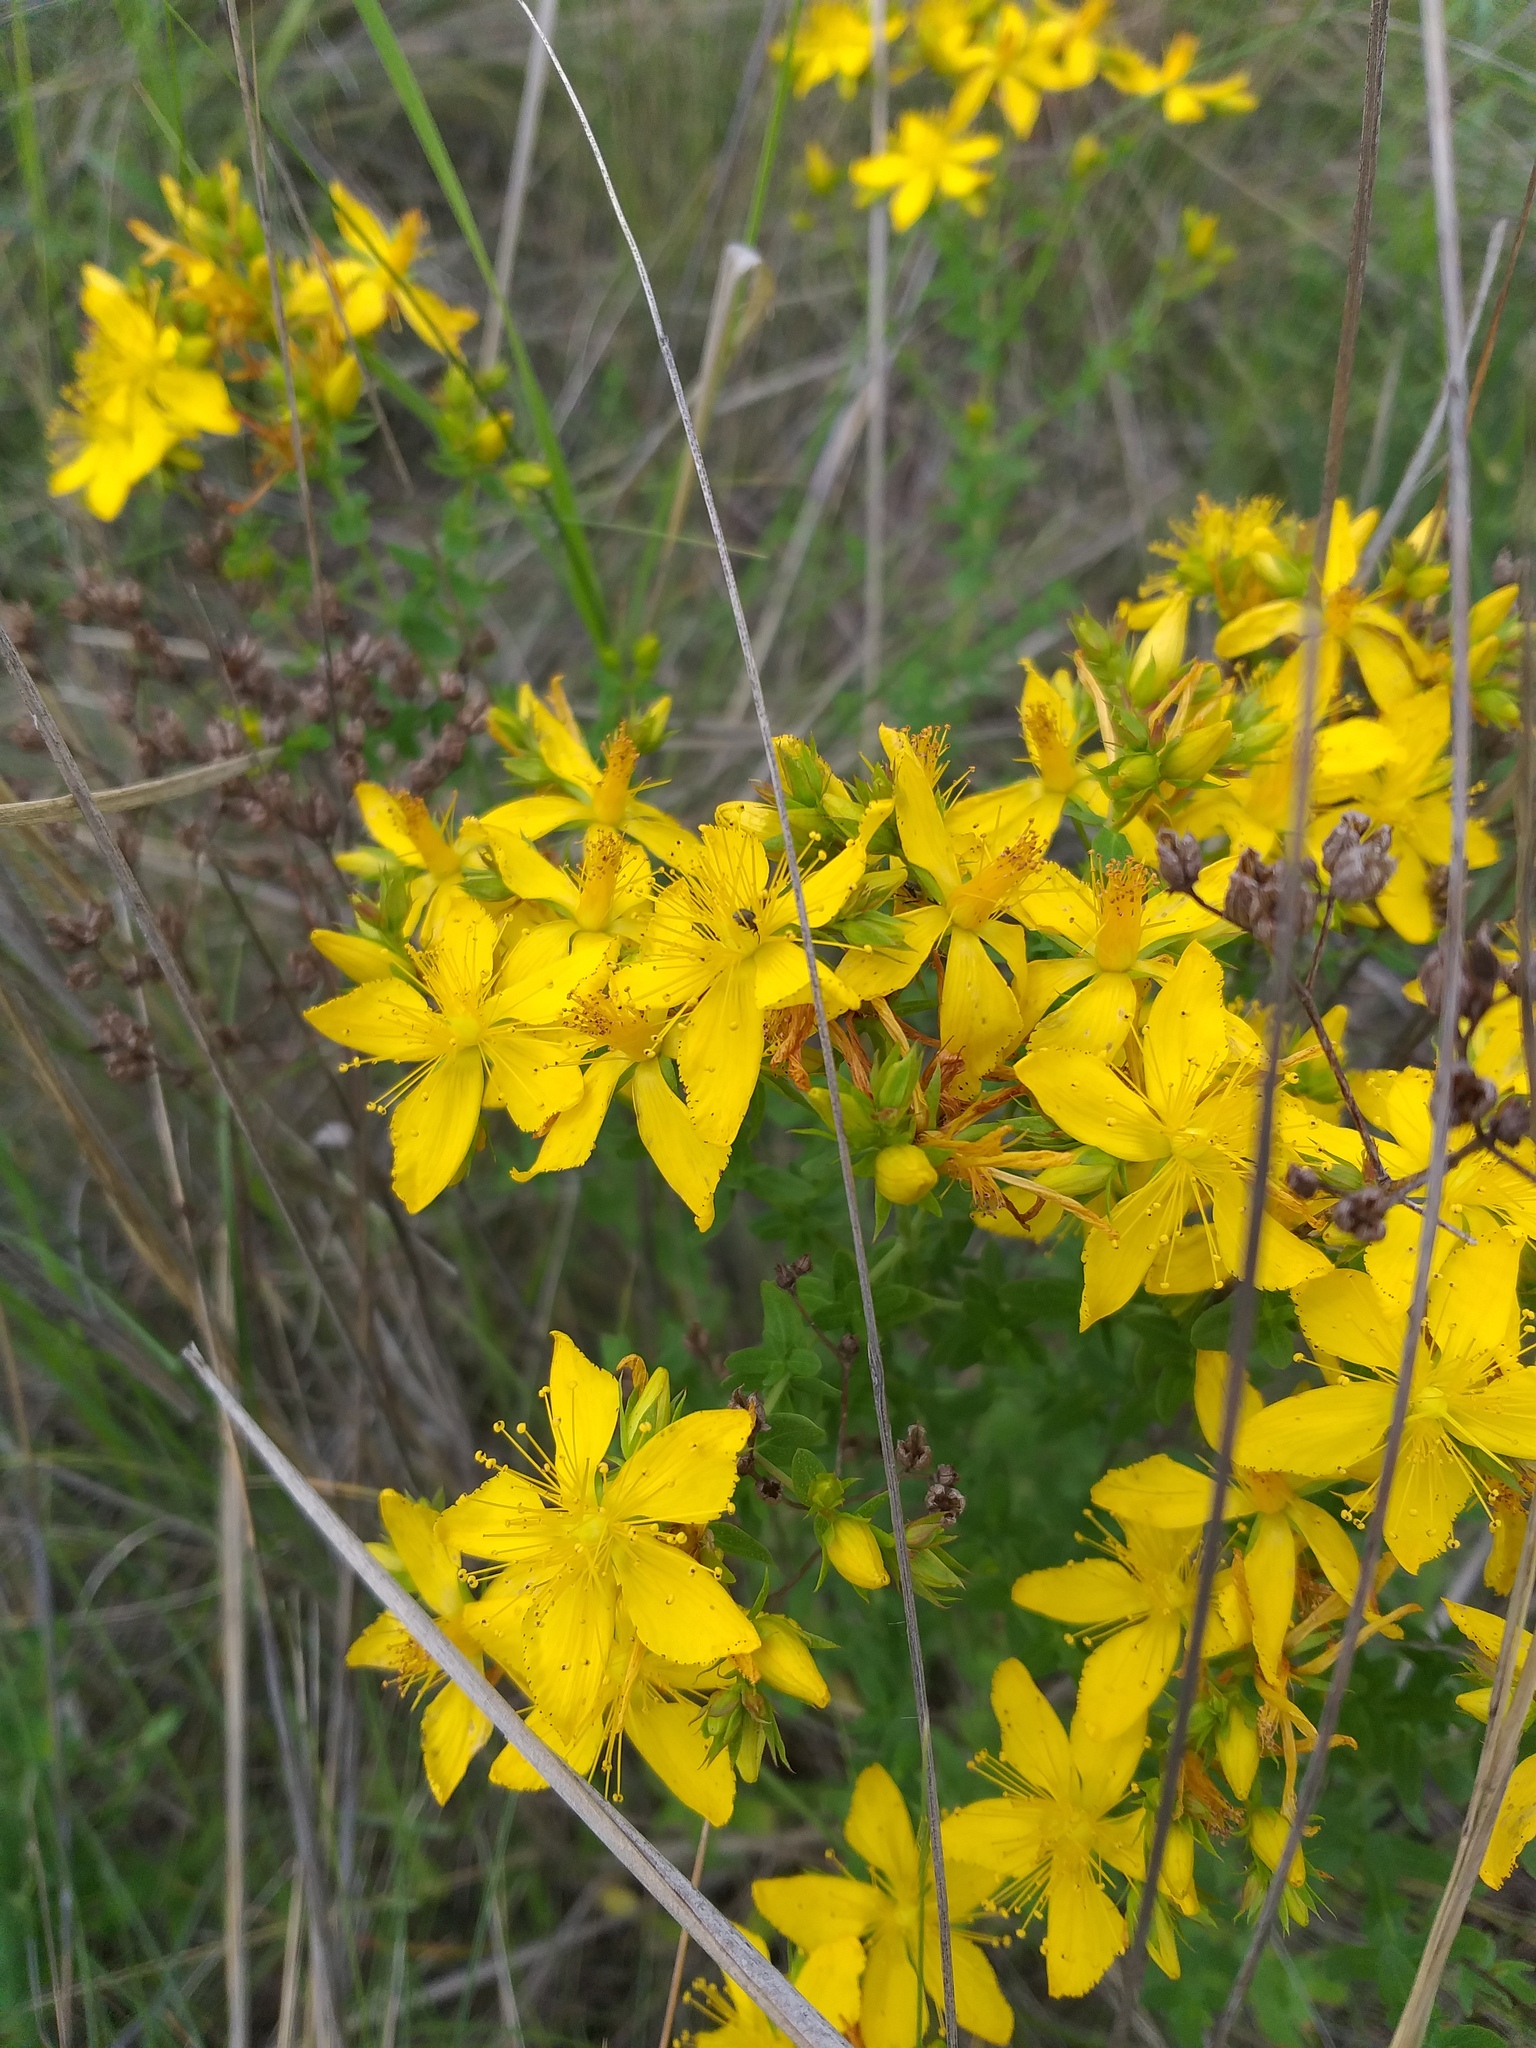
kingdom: Plantae
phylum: Tracheophyta
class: Magnoliopsida
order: Malpighiales
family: Hypericaceae
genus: Hypericum
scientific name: Hypericum perforatum
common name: Common st. johnswort
